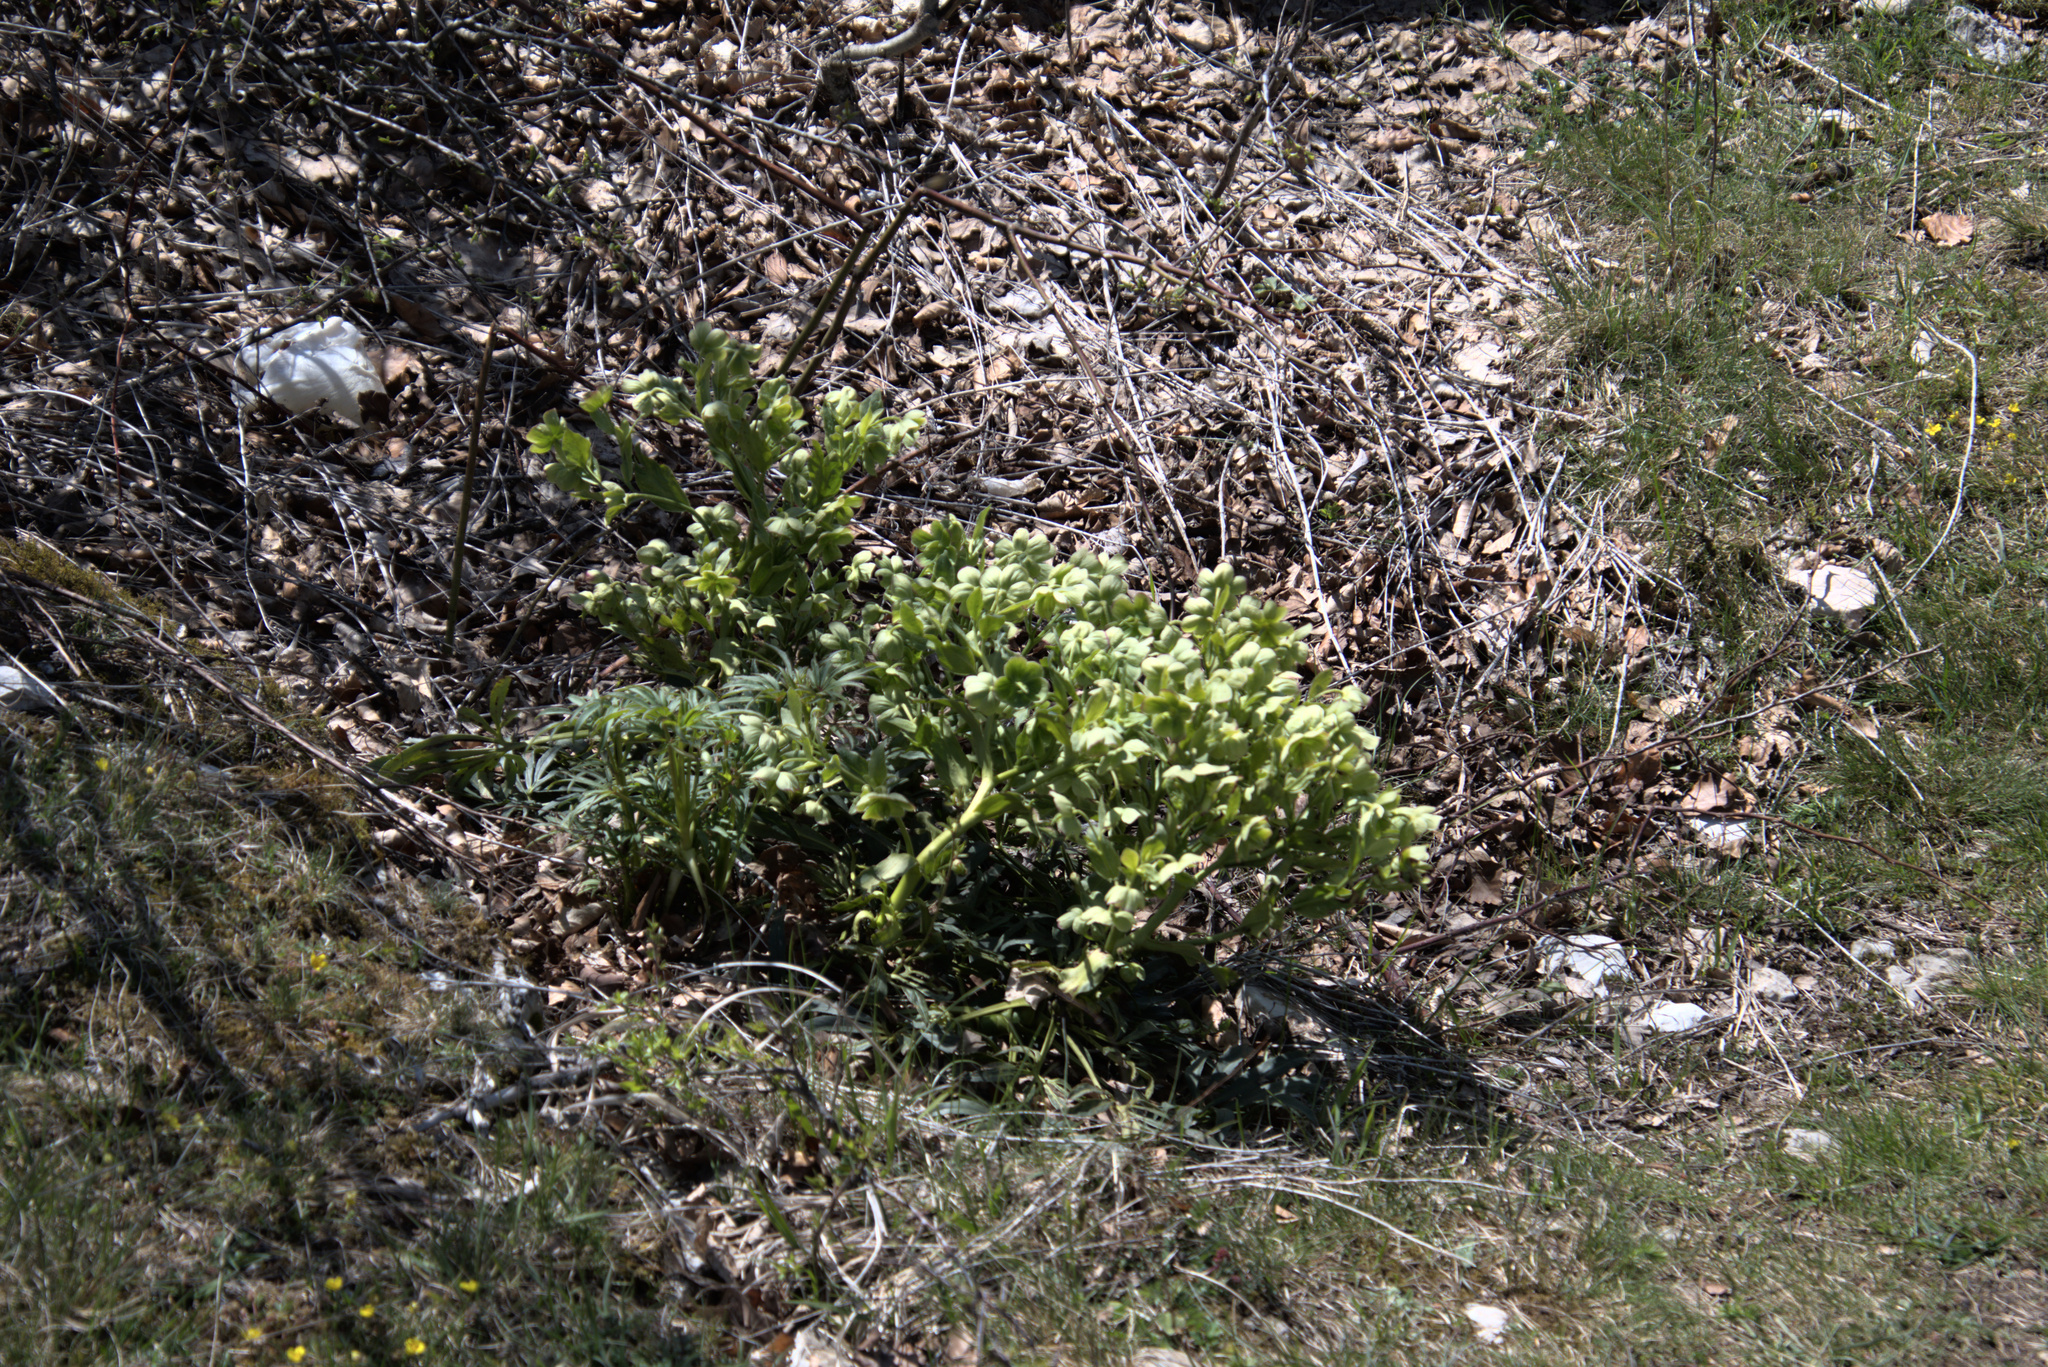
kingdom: Plantae
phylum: Tracheophyta
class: Magnoliopsida
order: Ranunculales
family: Ranunculaceae
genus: Helleborus
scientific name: Helleborus foetidus
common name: Stinking hellebore
